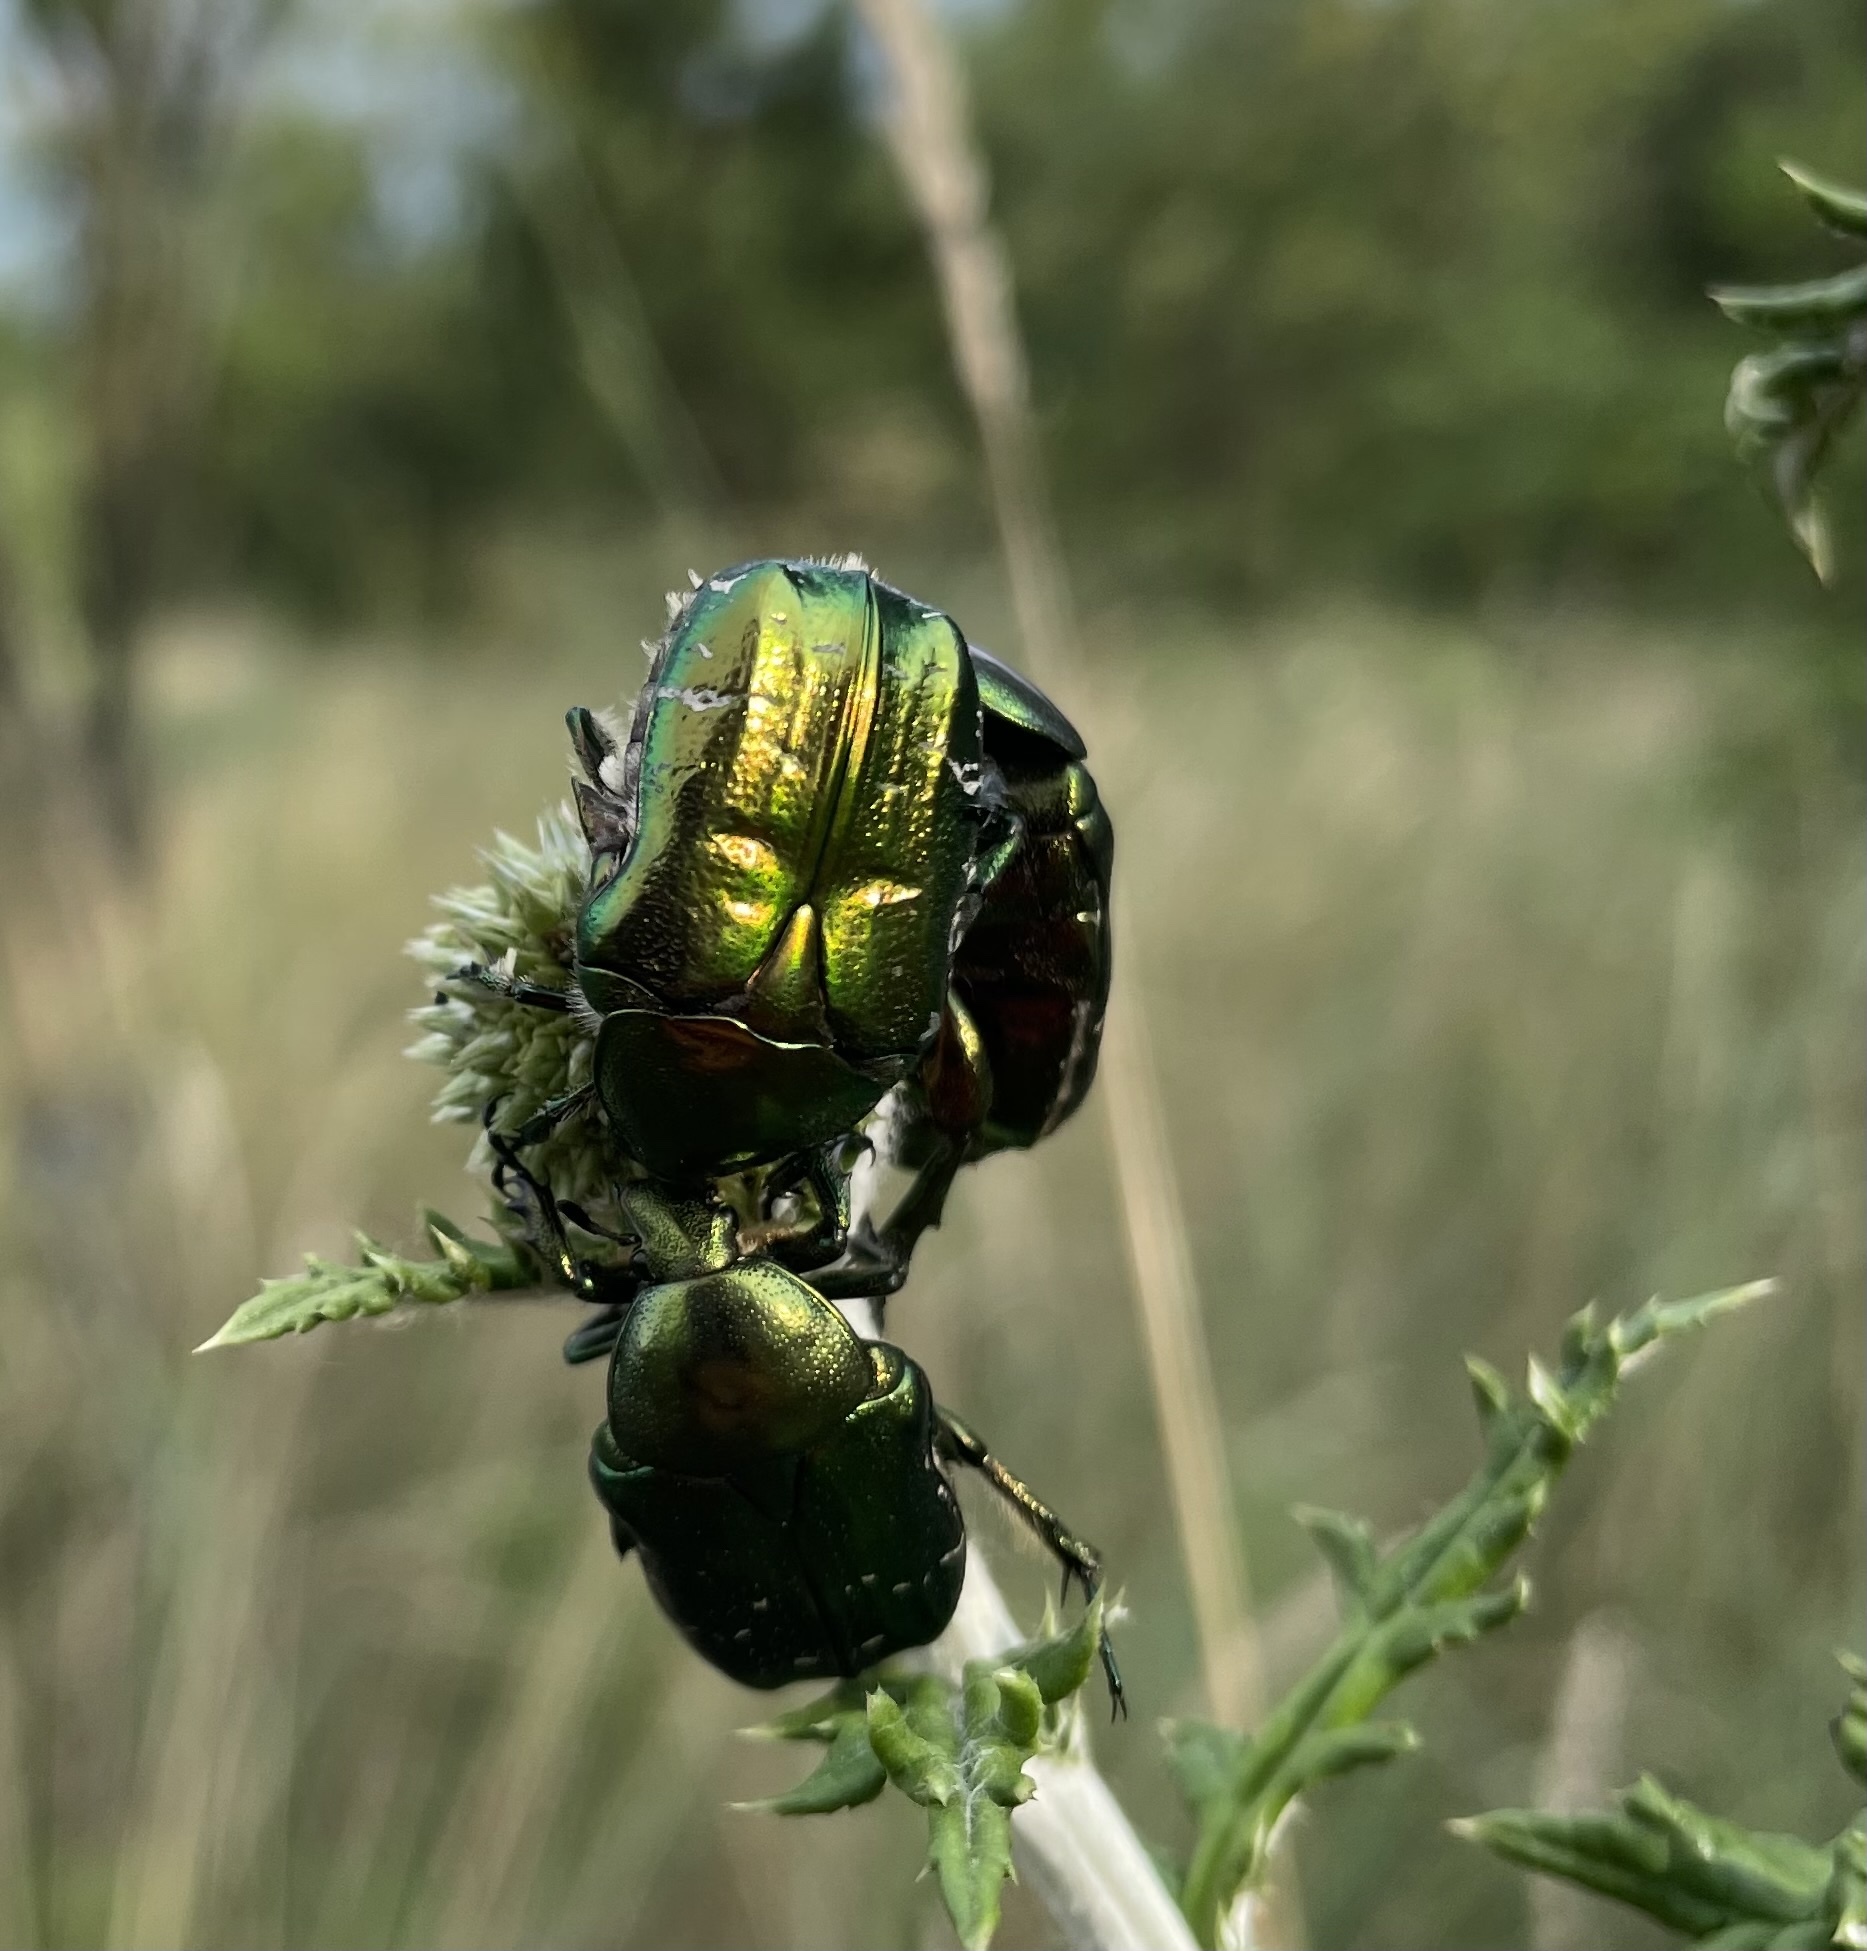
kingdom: Animalia
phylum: Arthropoda
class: Insecta
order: Coleoptera
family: Scarabaeidae
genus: Cetonia
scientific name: Cetonia aurata
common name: Rose chafer
